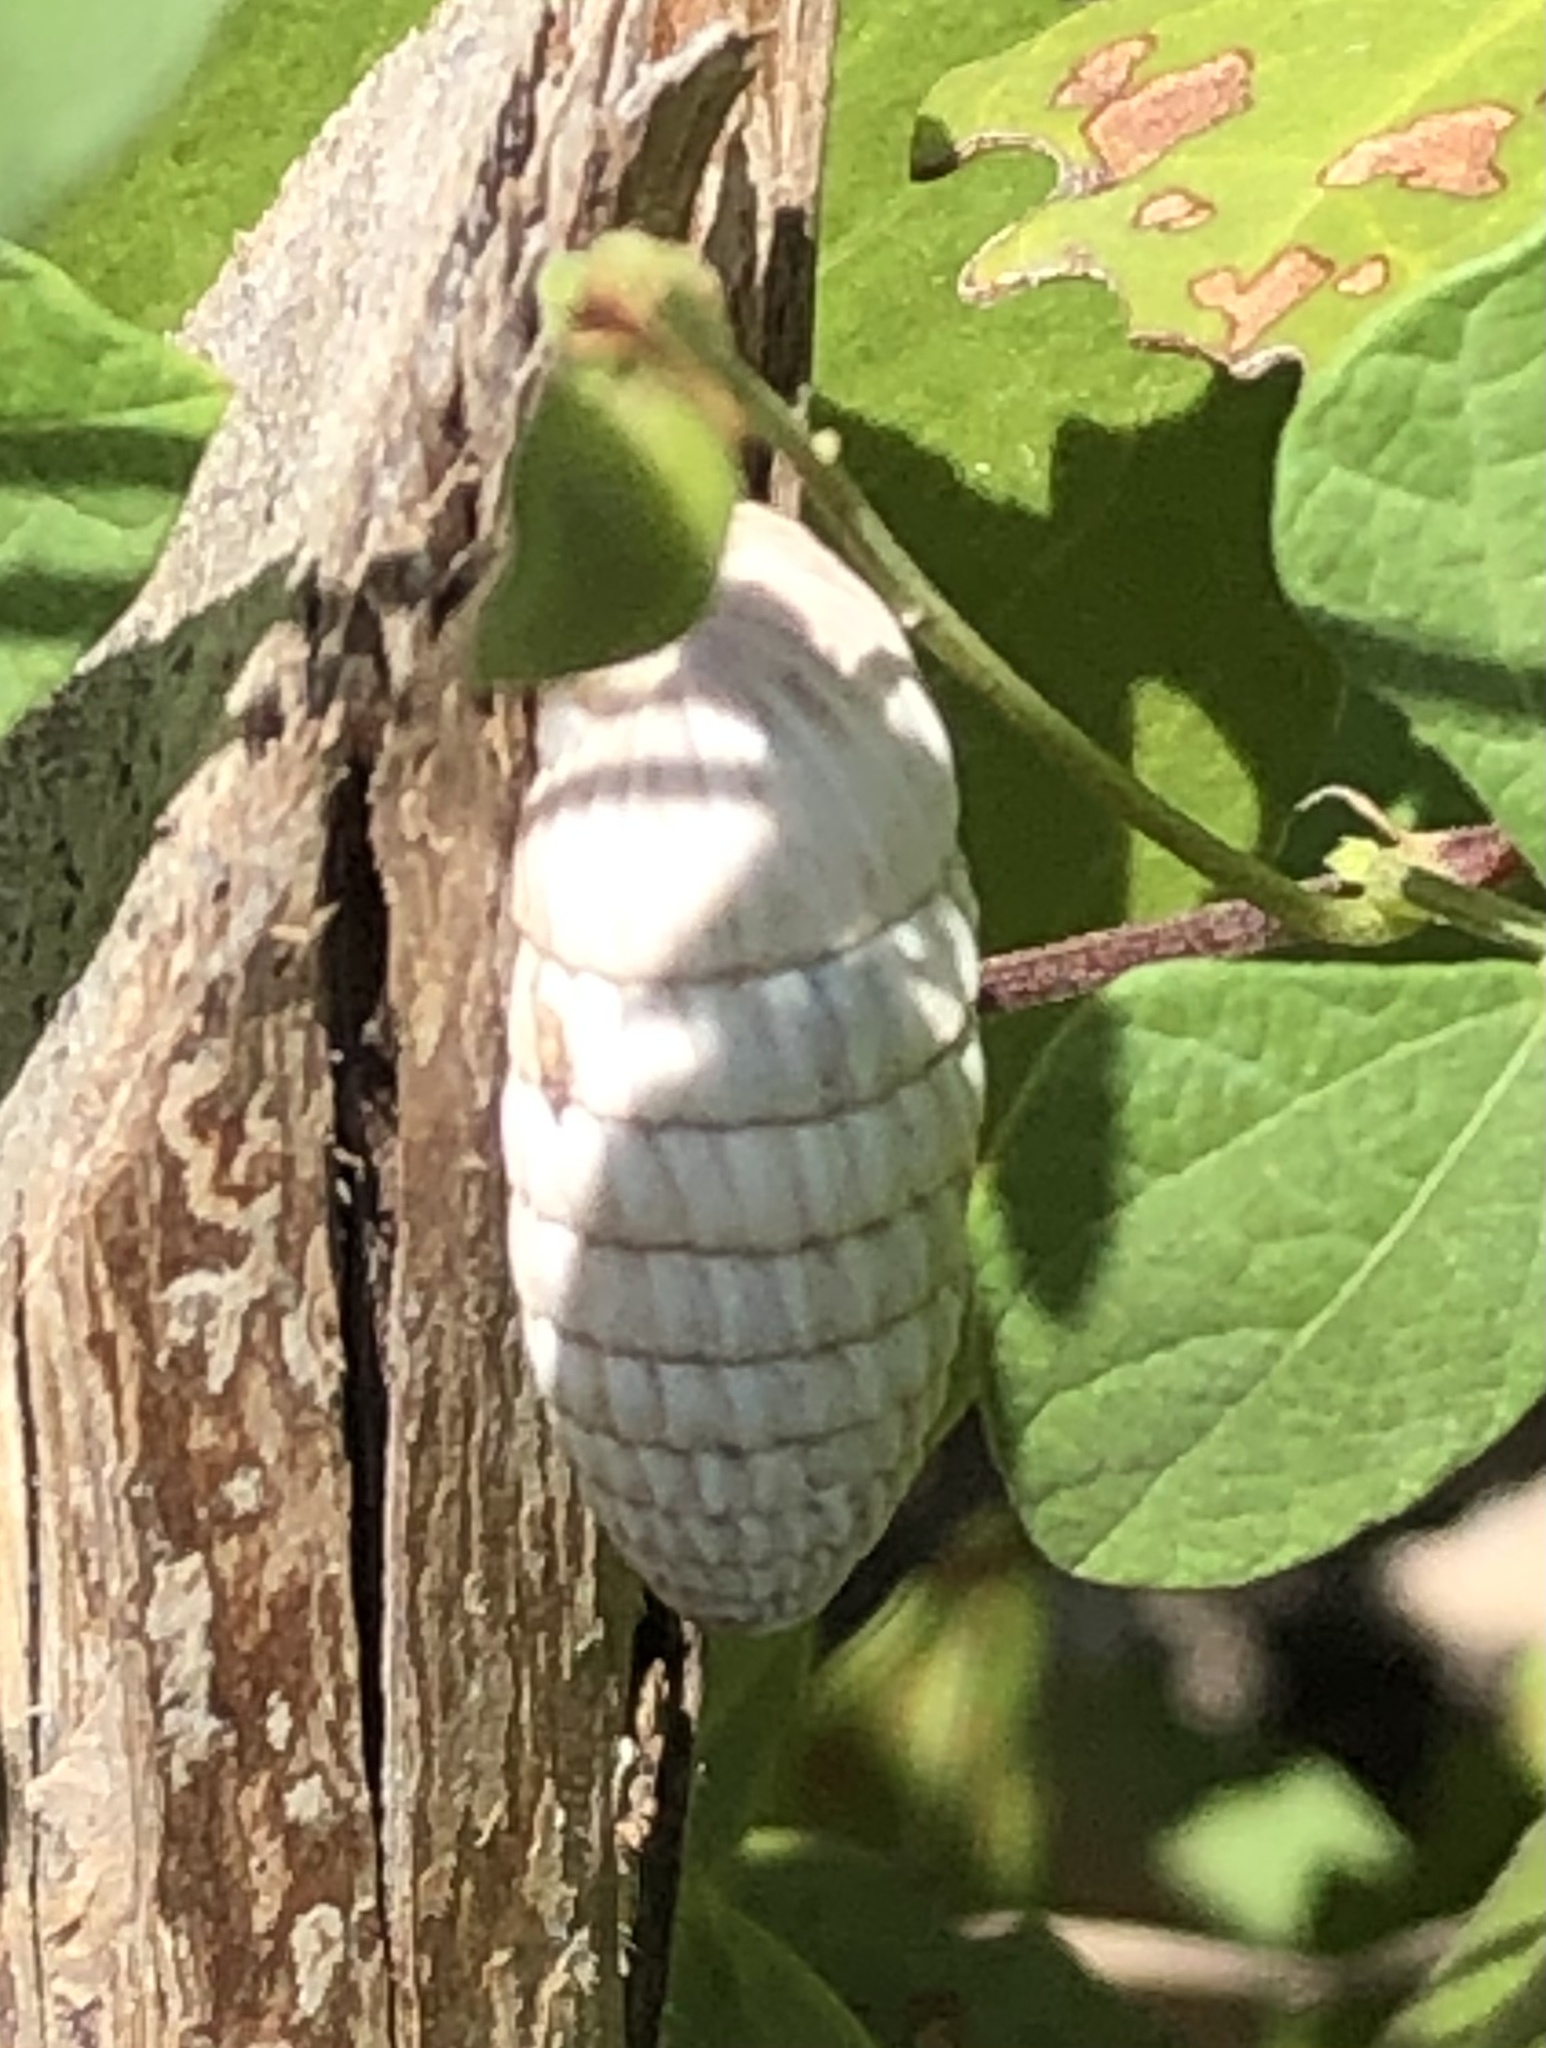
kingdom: Animalia
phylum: Mollusca
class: Gastropoda
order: Stylommatophora
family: Cerionidae
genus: Cerion
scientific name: Cerion uva
